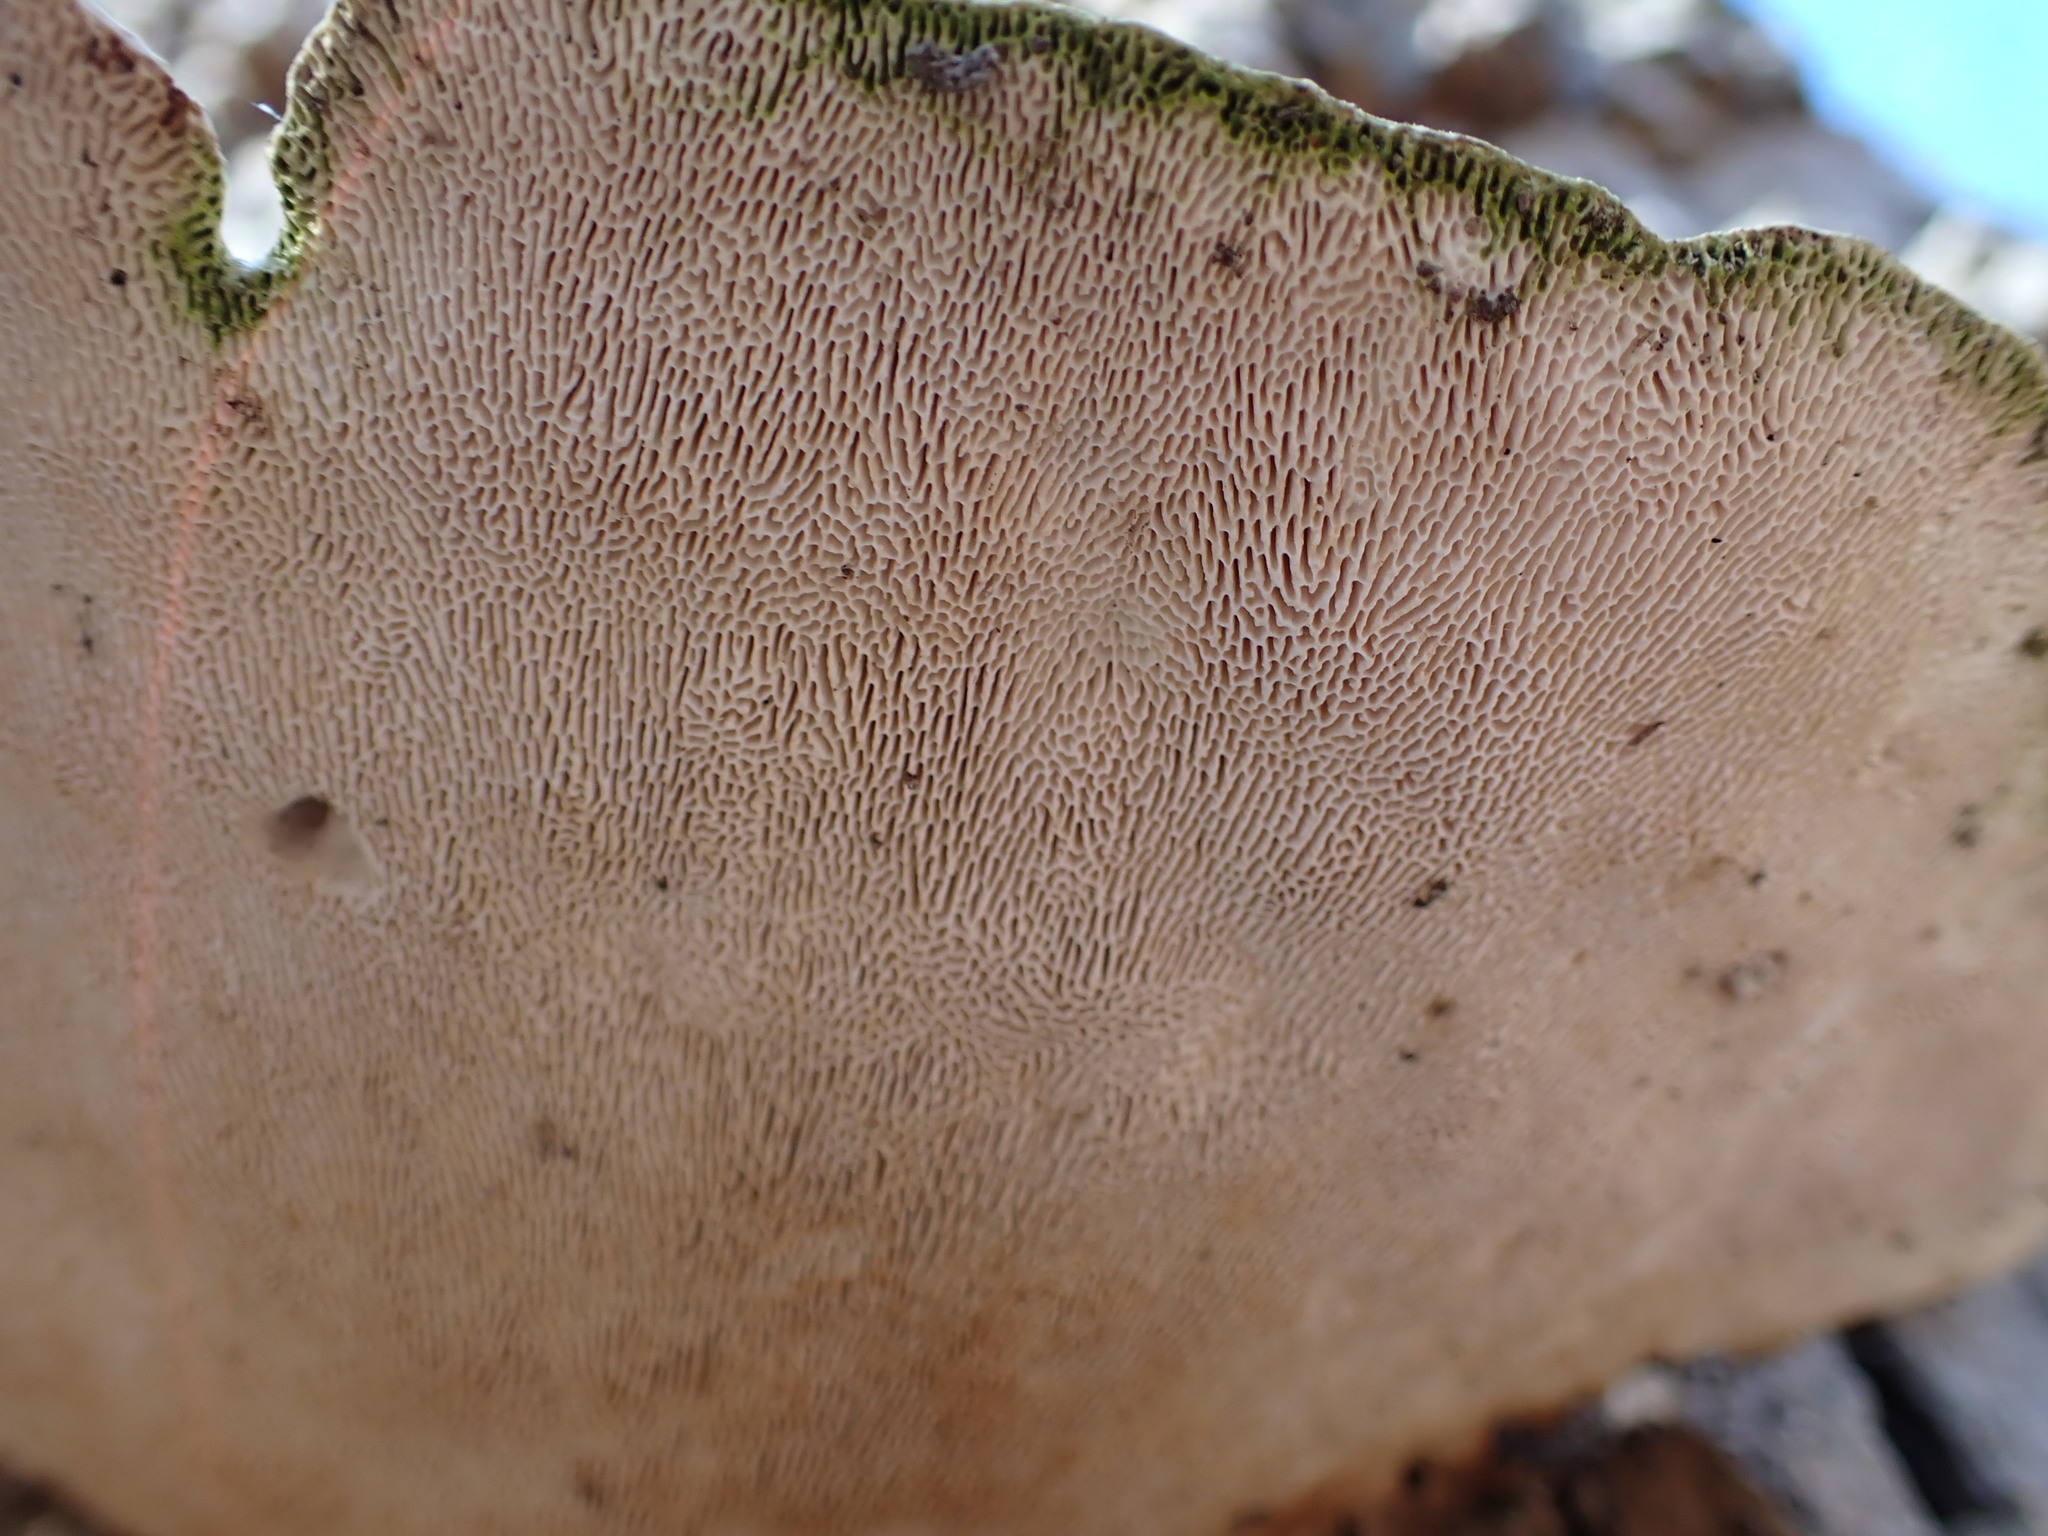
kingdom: Fungi
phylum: Basidiomycota
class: Agaricomycetes
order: Polyporales
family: Polyporaceae
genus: Trametes
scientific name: Trametes gibbosa
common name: Lumpy bracket
